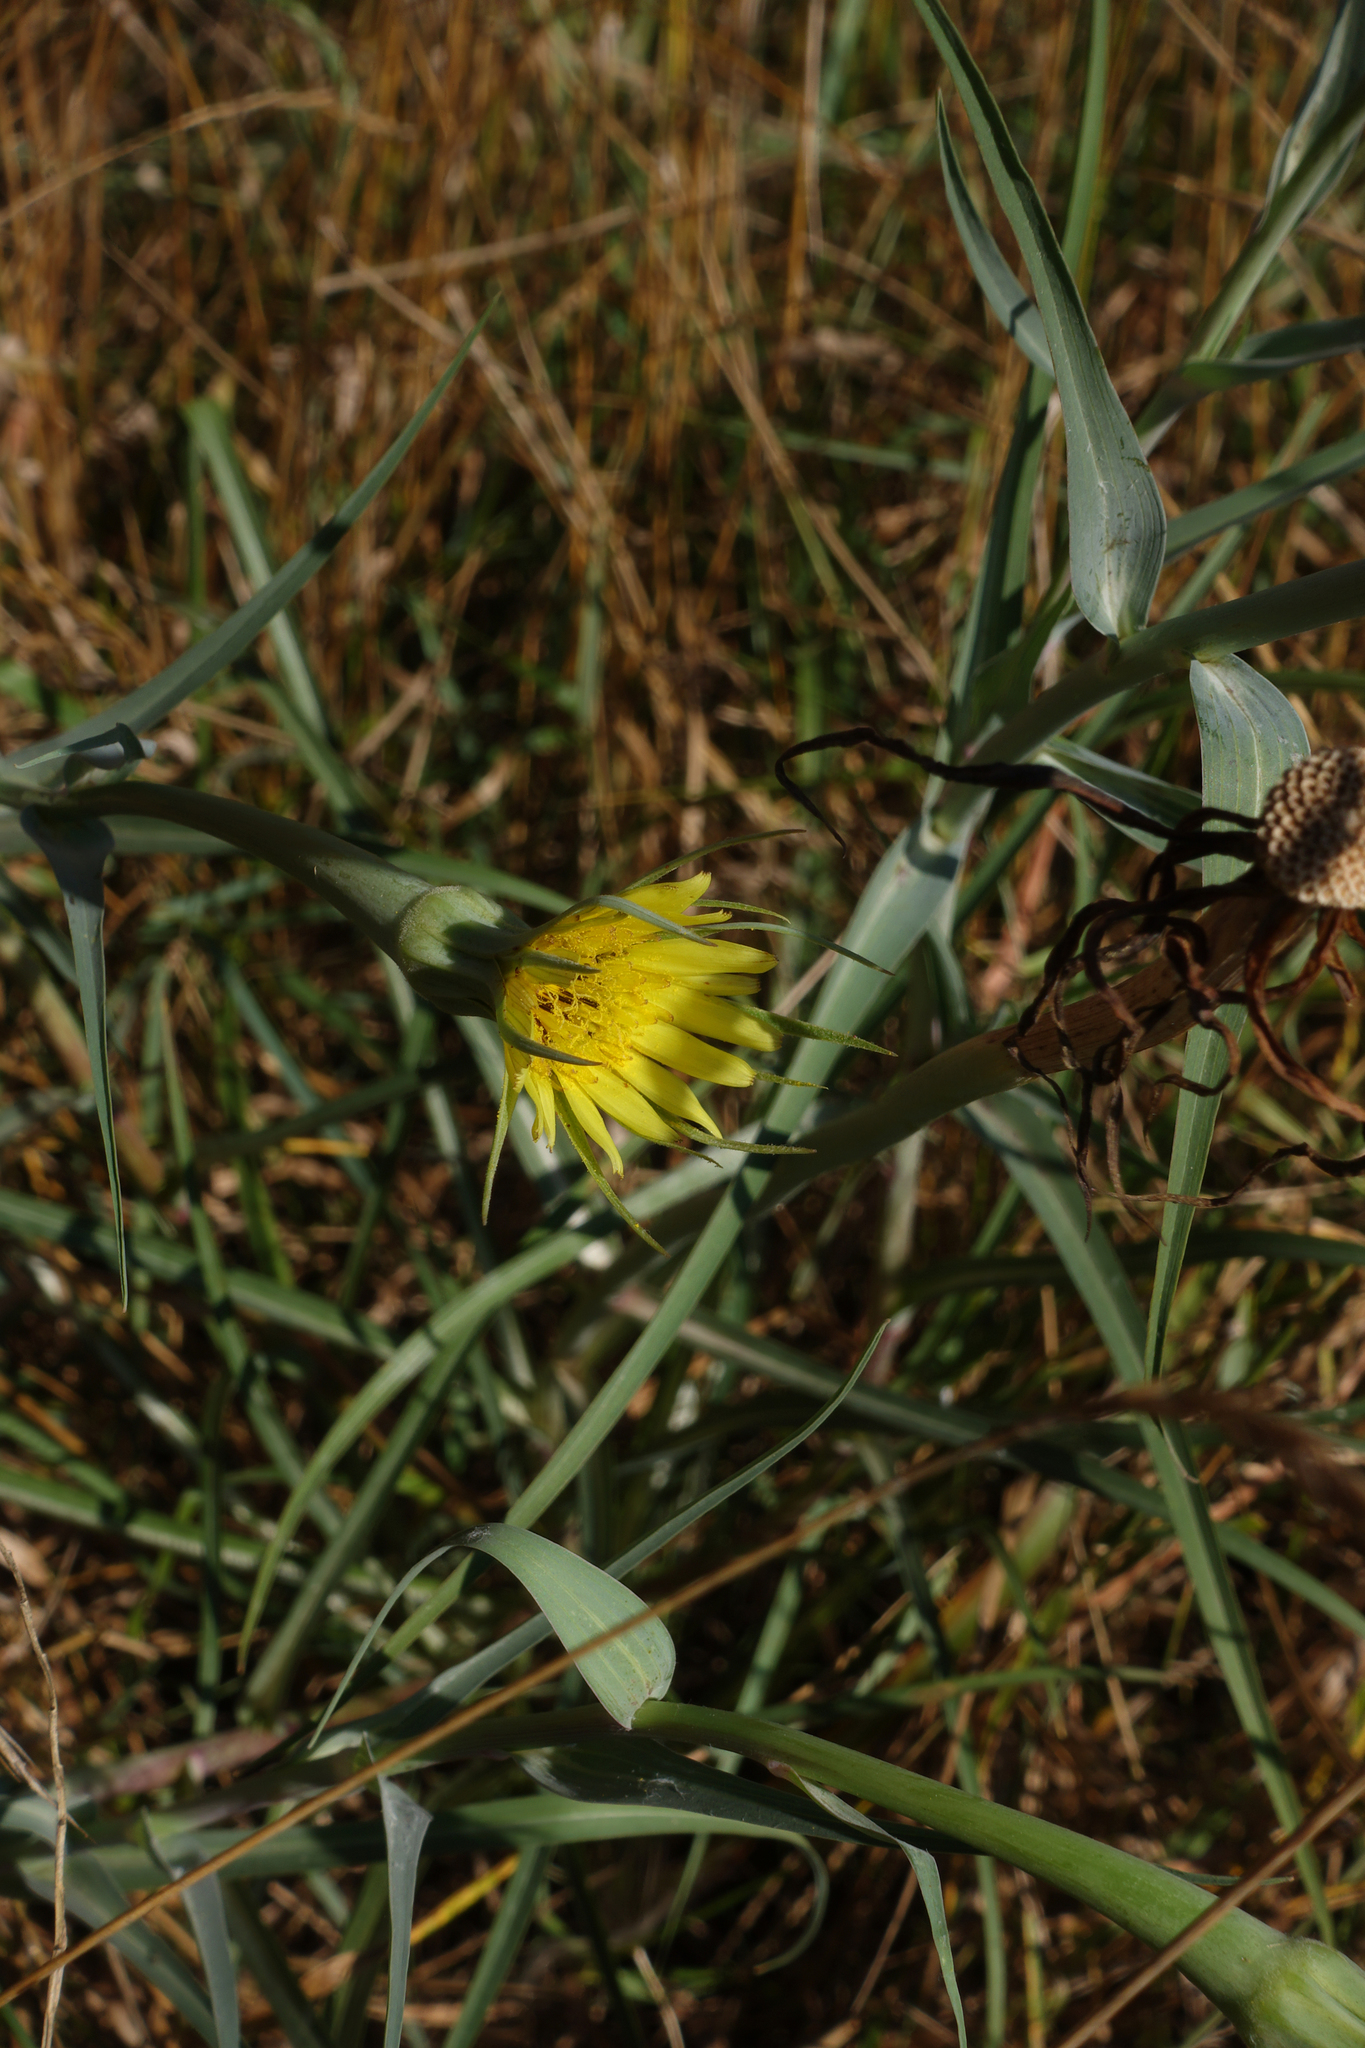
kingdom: Plantae
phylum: Tracheophyta
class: Magnoliopsida
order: Asterales
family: Asteraceae
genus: Tragopogon
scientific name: Tragopogon dubius
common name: Yellow salsify
